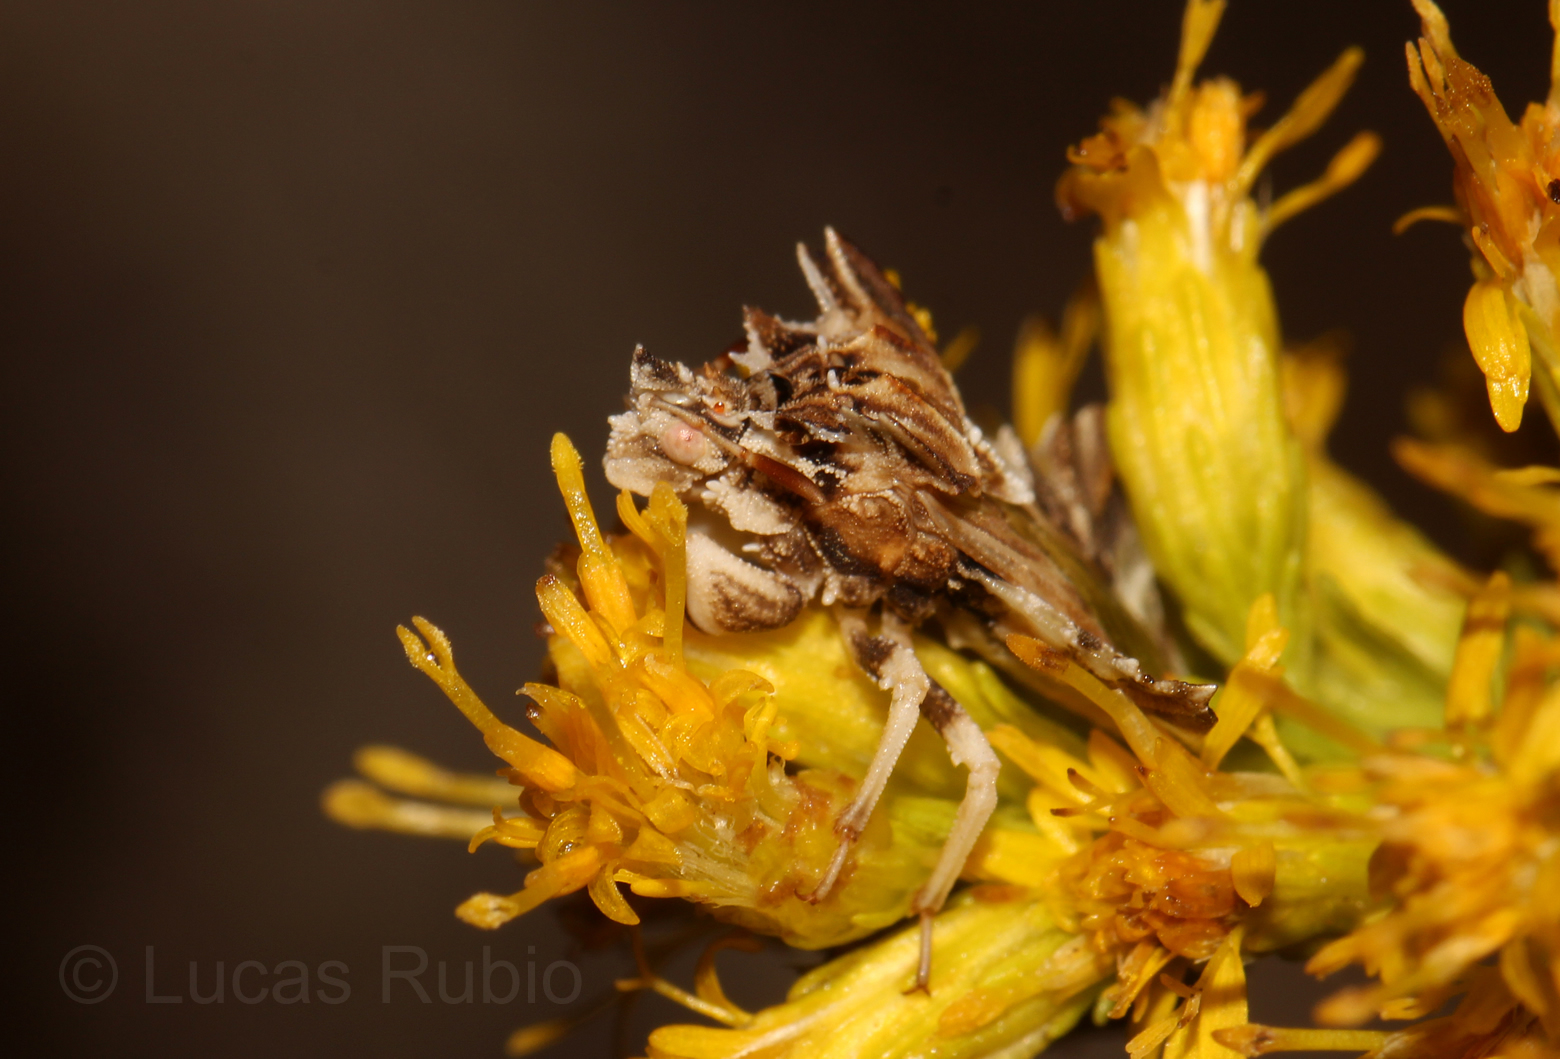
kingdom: Animalia
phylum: Arthropoda
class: Insecta
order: Hemiptera
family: Reduviidae
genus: Phymata
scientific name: Phymata fortificata
